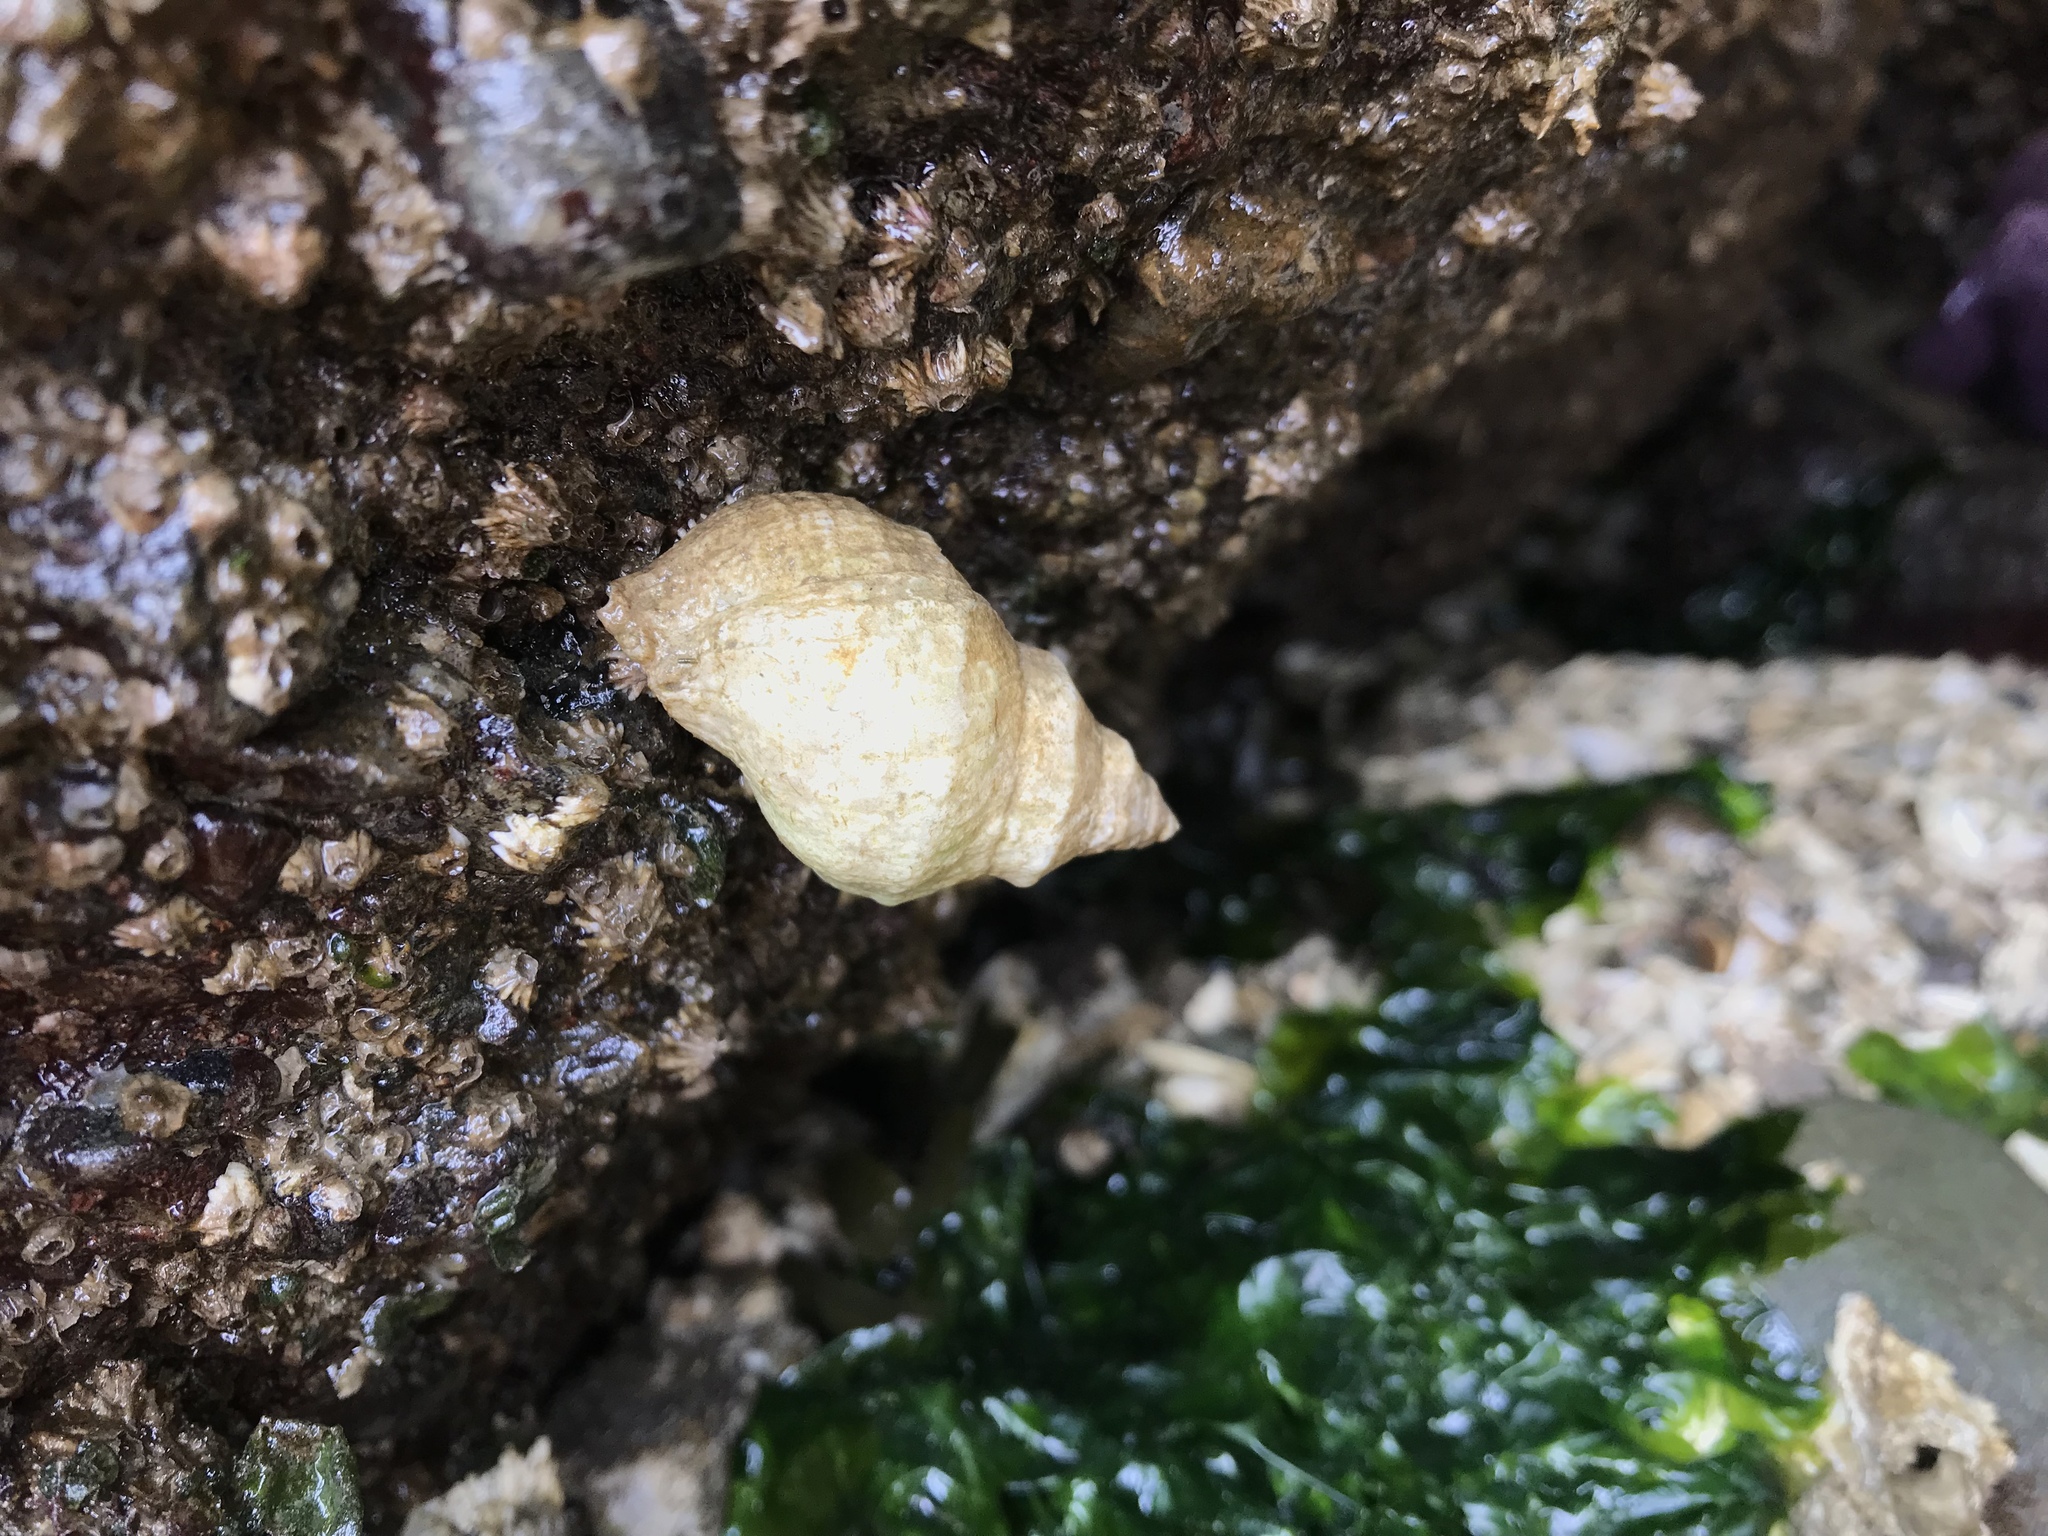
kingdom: Animalia
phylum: Mollusca
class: Gastropoda
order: Neogastropoda
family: Muricidae
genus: Nucella
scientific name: Nucella lamellosa
